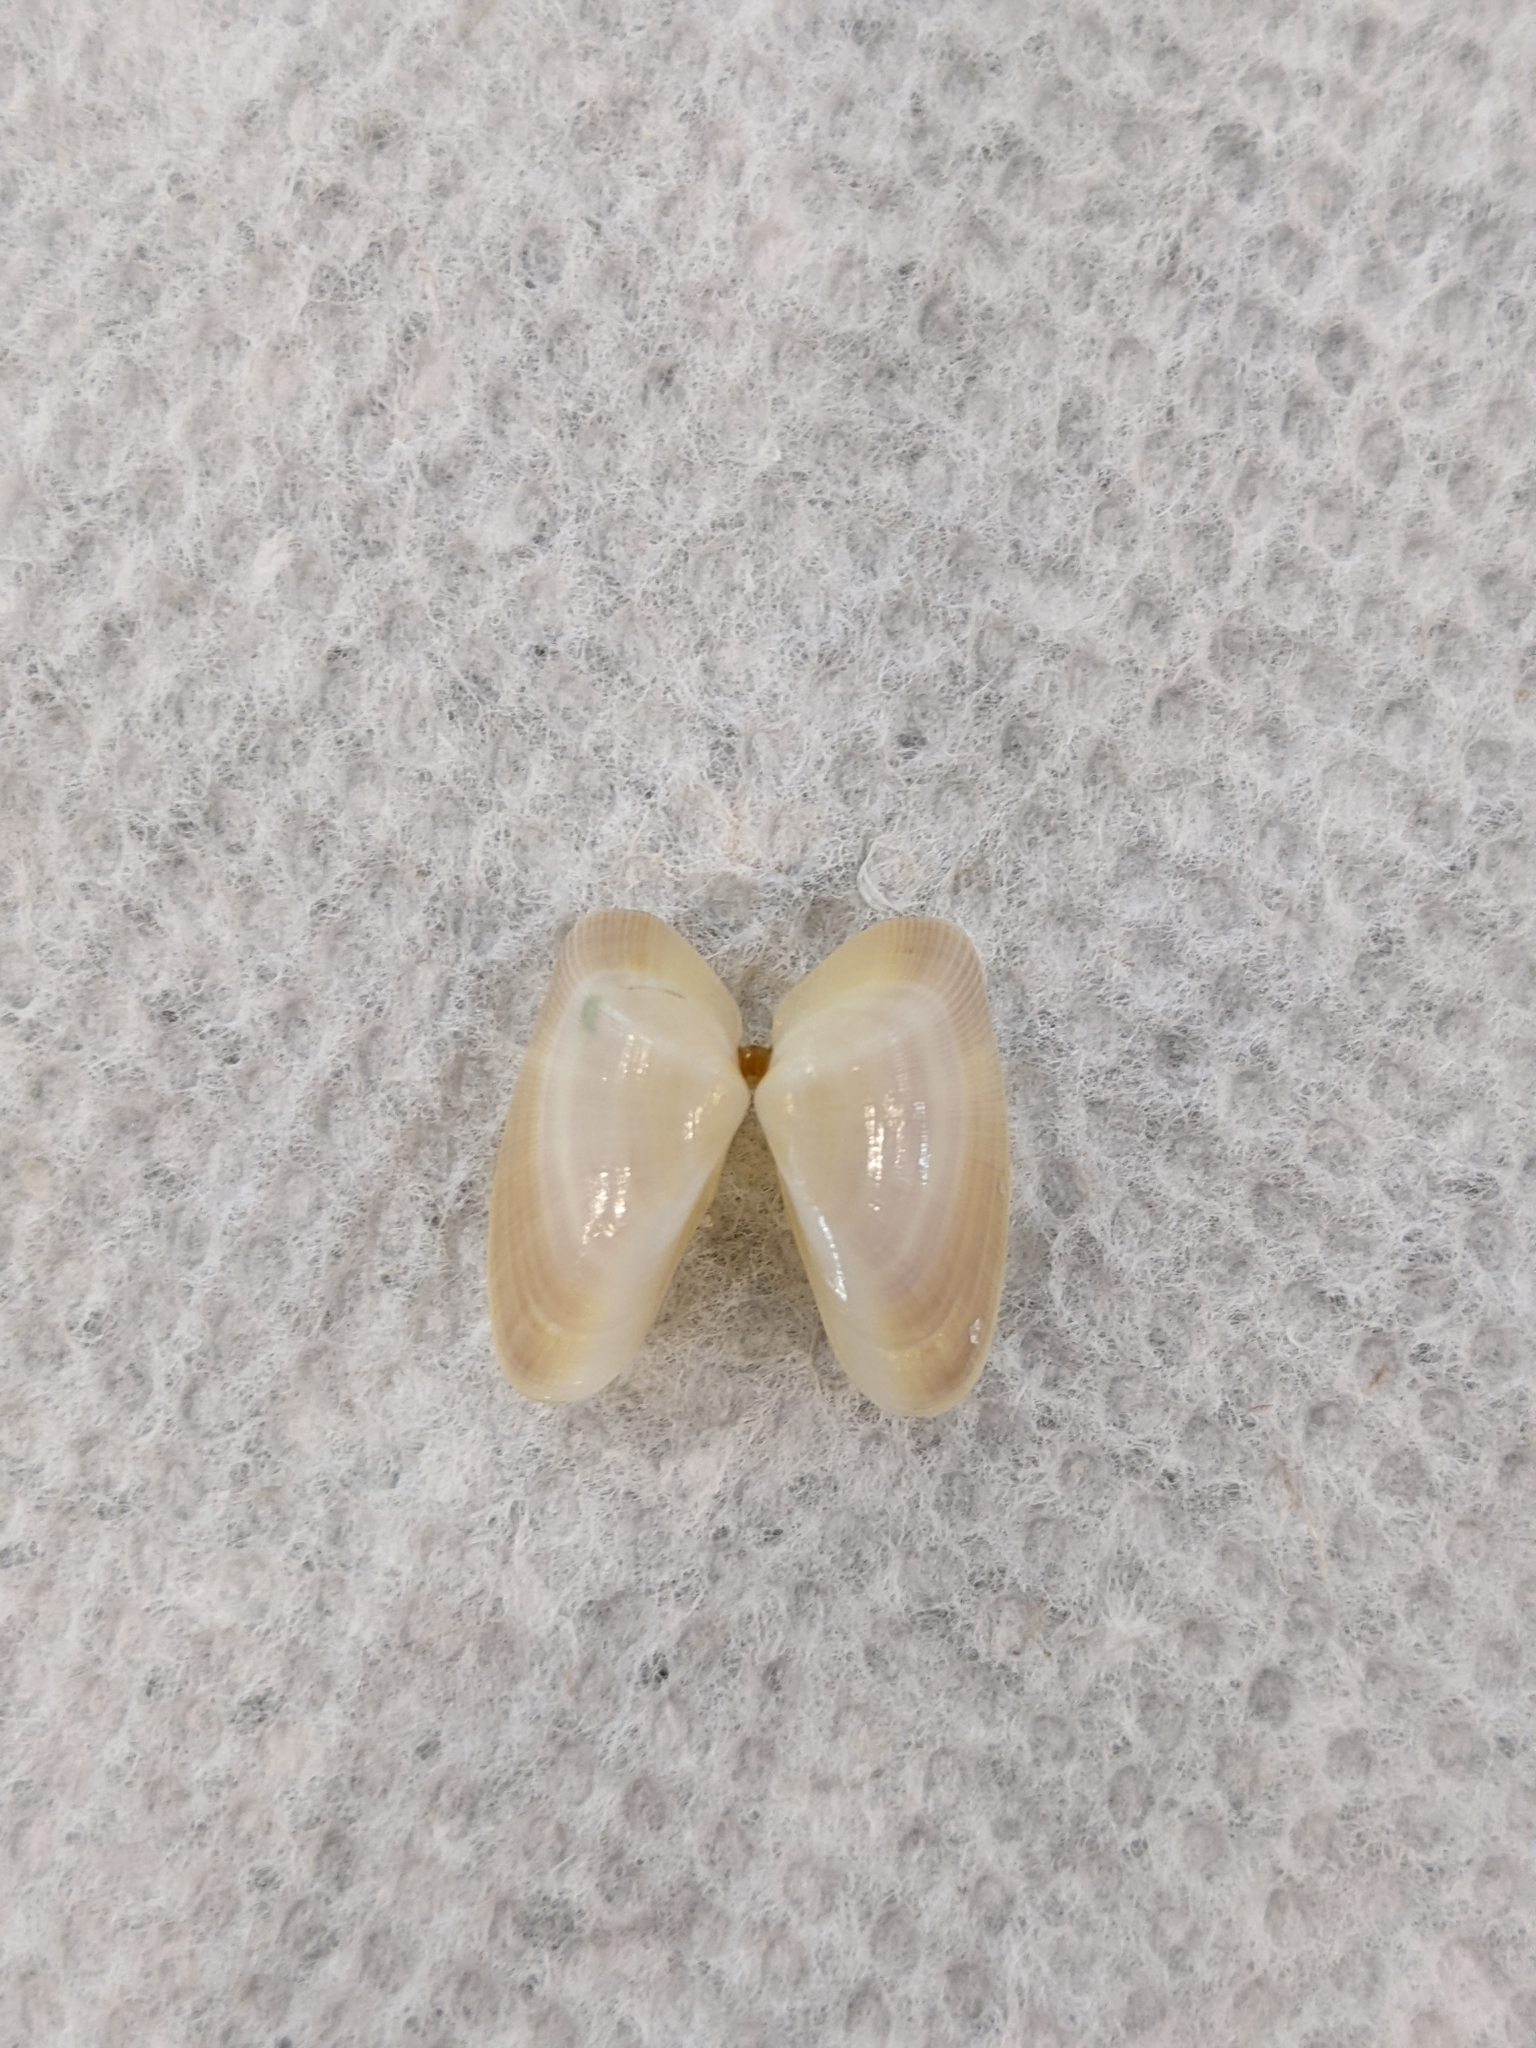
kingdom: Animalia
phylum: Mollusca
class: Bivalvia
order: Cardiida
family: Donacidae
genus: Donax
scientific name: Donax variabilis
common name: Butterfly shell
